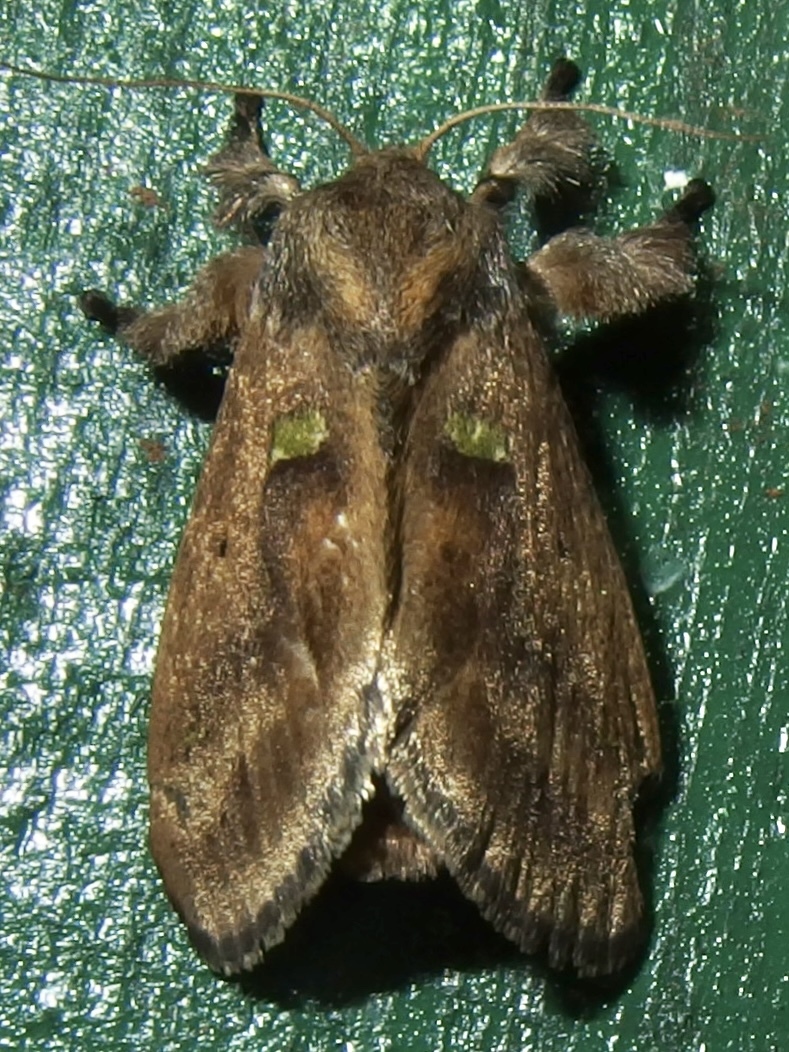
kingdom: Animalia
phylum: Arthropoda
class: Insecta
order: Lepidoptera
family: Limacodidae
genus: Euclea
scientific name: Euclea norba
